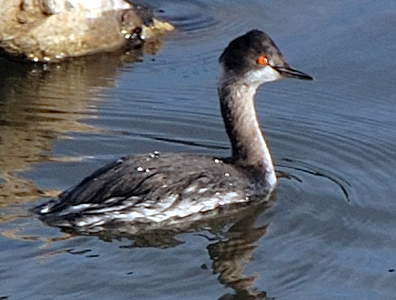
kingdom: Animalia
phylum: Chordata
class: Aves
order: Podicipediformes
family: Podicipedidae
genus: Podiceps
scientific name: Podiceps nigricollis
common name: Black-necked grebe
